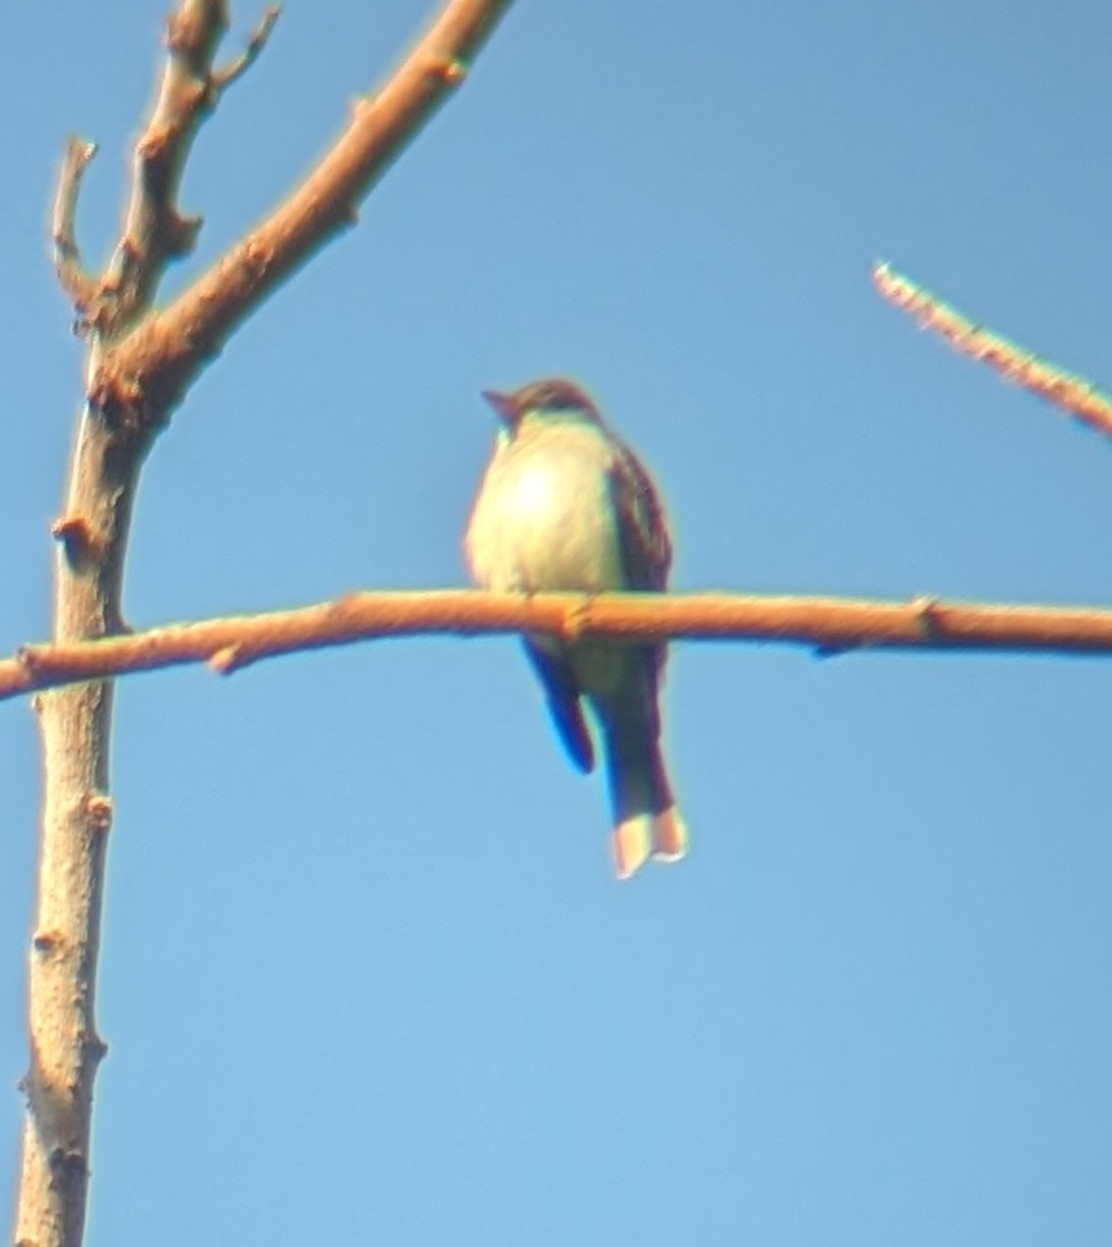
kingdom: Animalia
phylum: Chordata
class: Aves
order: Passeriformes
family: Tyrannidae
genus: Contopus
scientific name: Contopus virens
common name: Eastern wood-pewee
